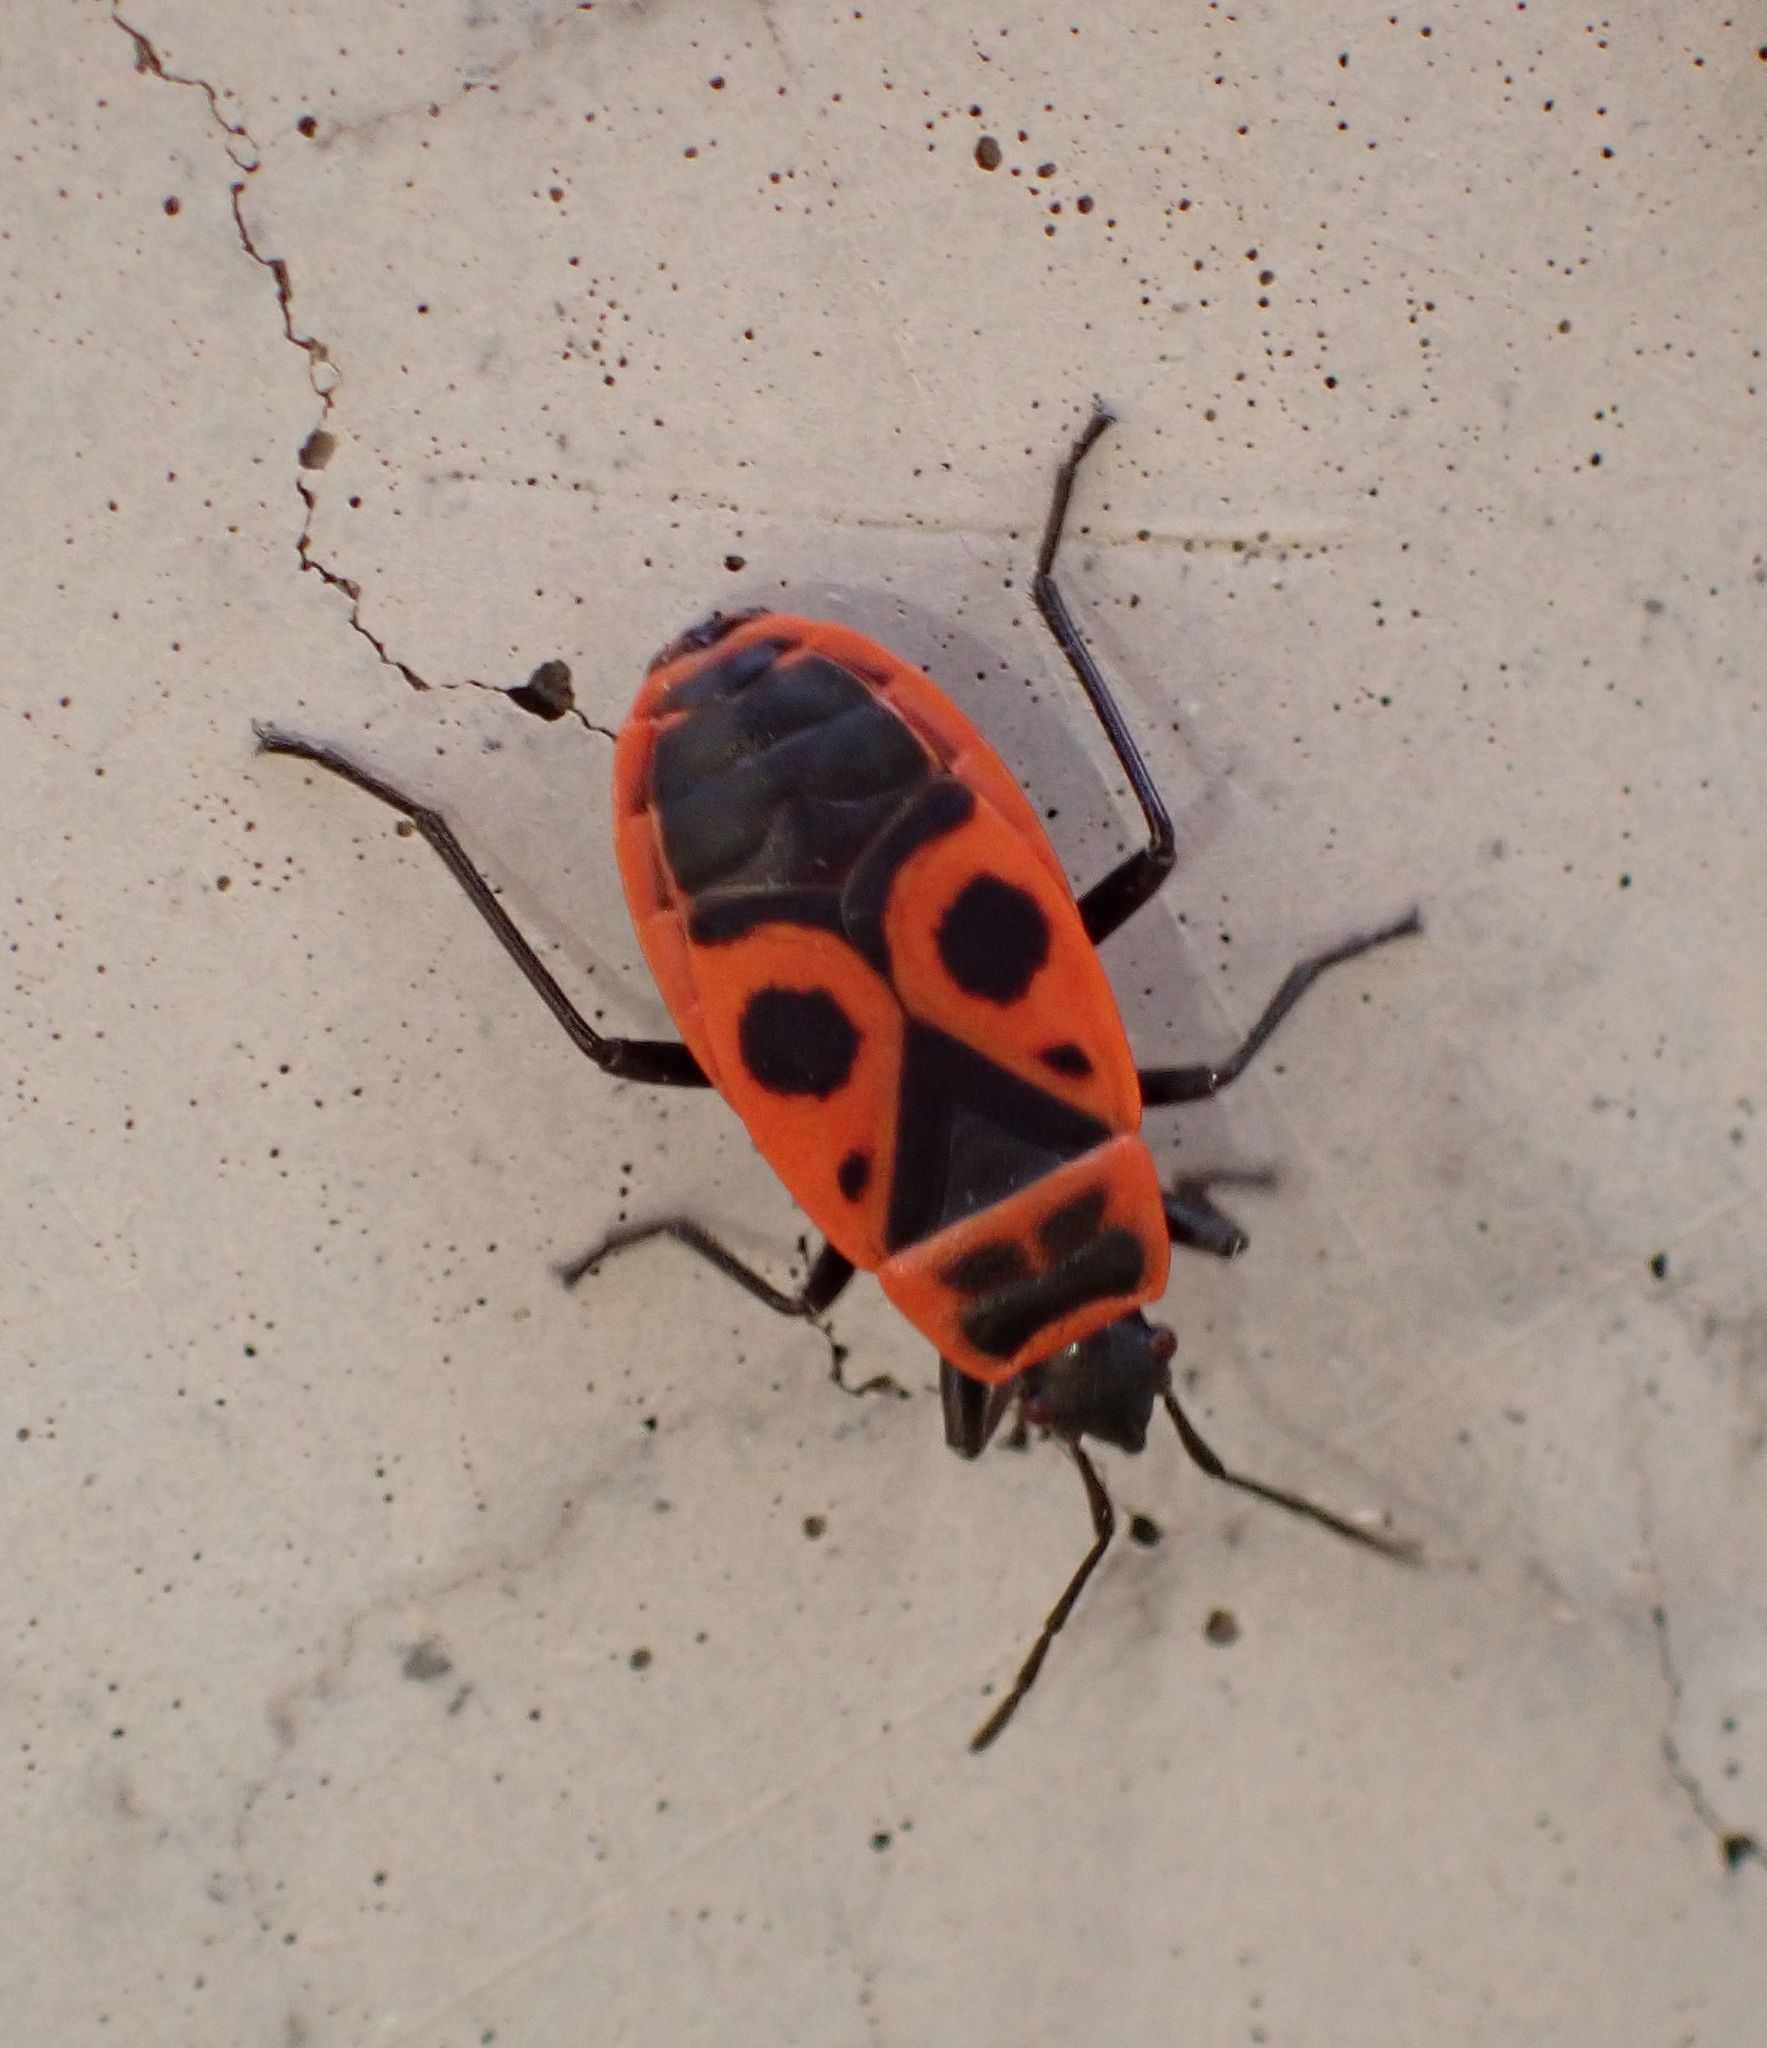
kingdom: Animalia
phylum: Arthropoda
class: Insecta
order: Hemiptera
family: Pyrrhocoridae
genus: Pyrrhocoris
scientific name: Pyrrhocoris apterus
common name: Firebug
